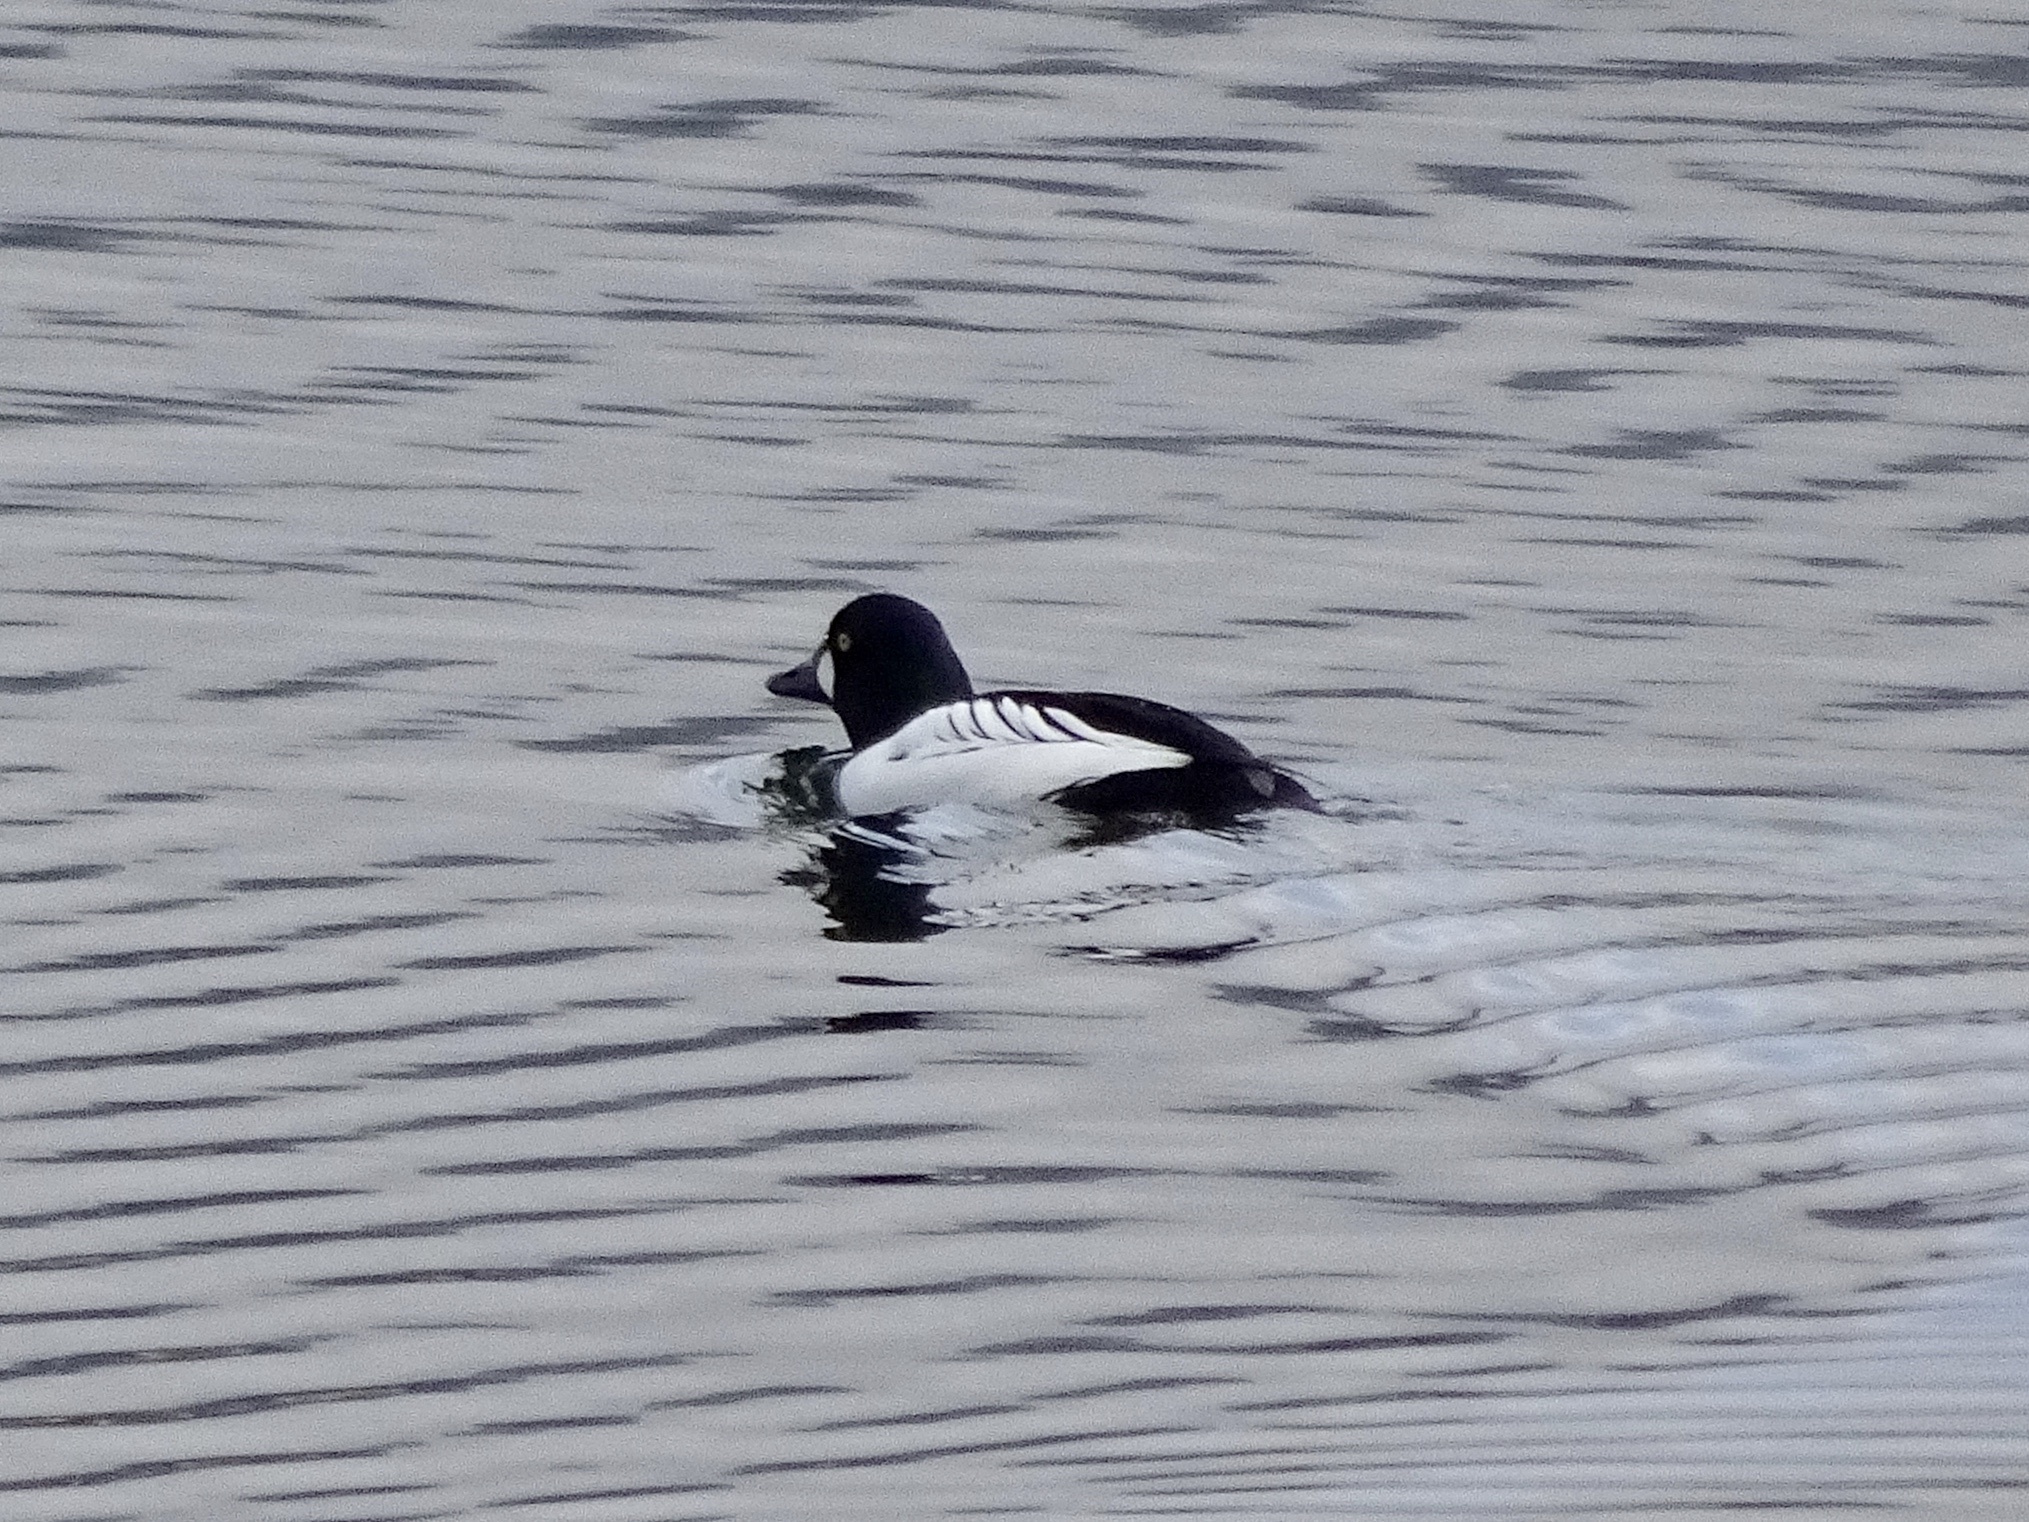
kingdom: Animalia
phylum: Chordata
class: Aves
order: Anseriformes
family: Anatidae
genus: Bucephala
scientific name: Bucephala clangula
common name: Common goldeneye
